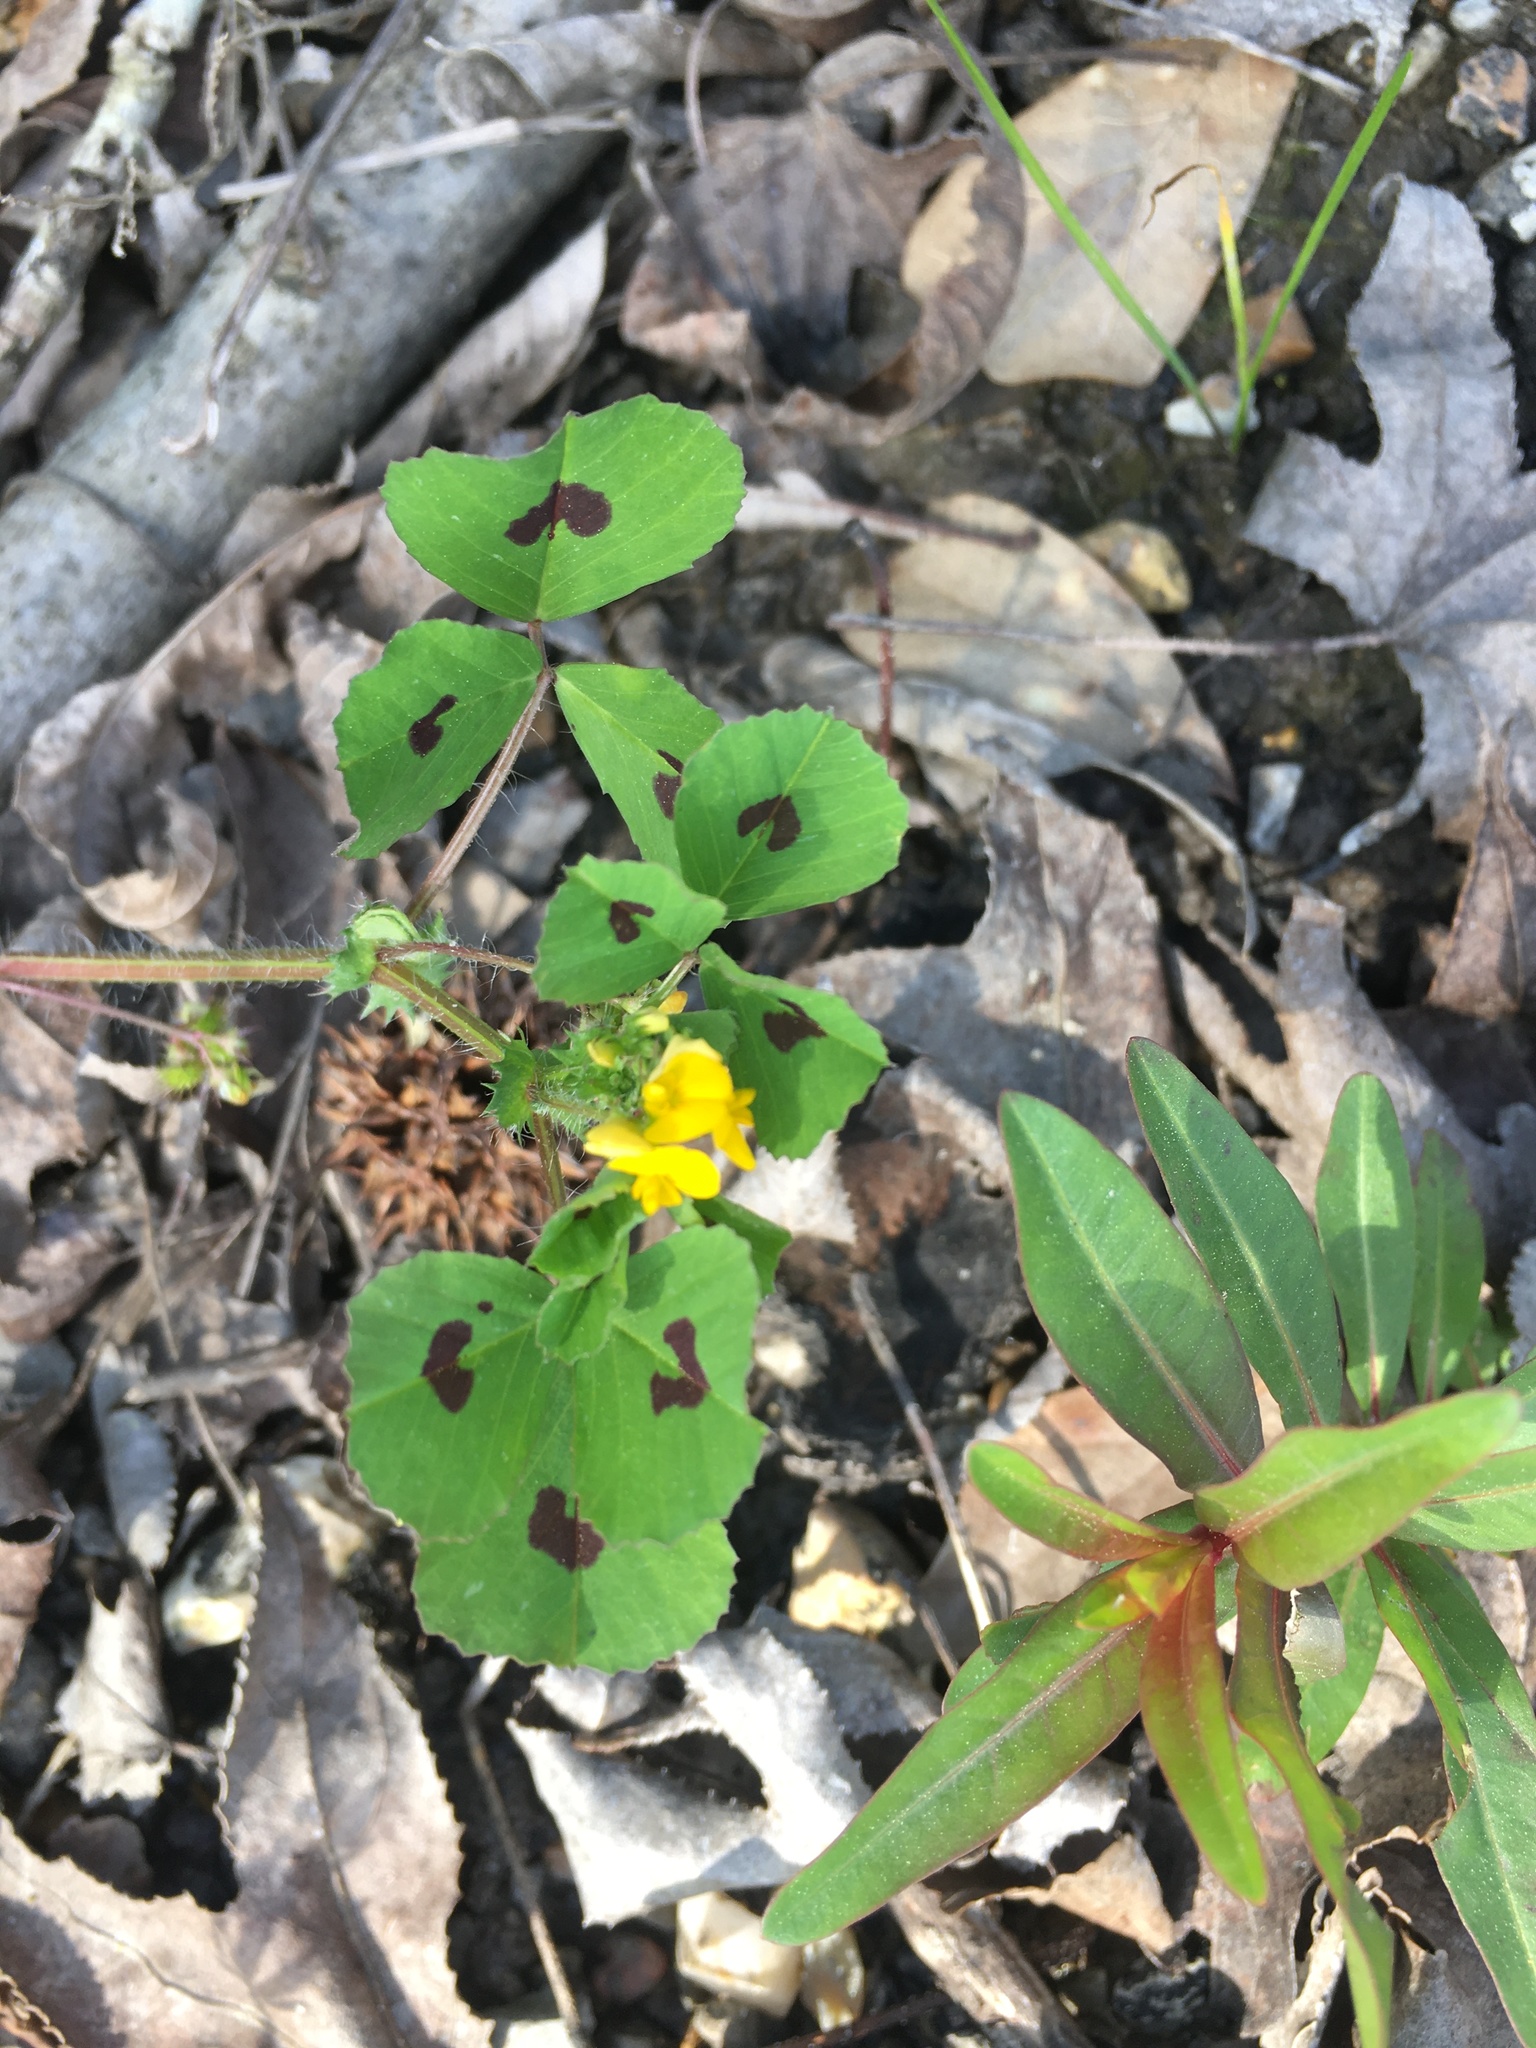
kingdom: Plantae
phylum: Tracheophyta
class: Magnoliopsida
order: Fabales
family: Fabaceae
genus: Medicago
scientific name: Medicago arabica
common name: Spotted medick
